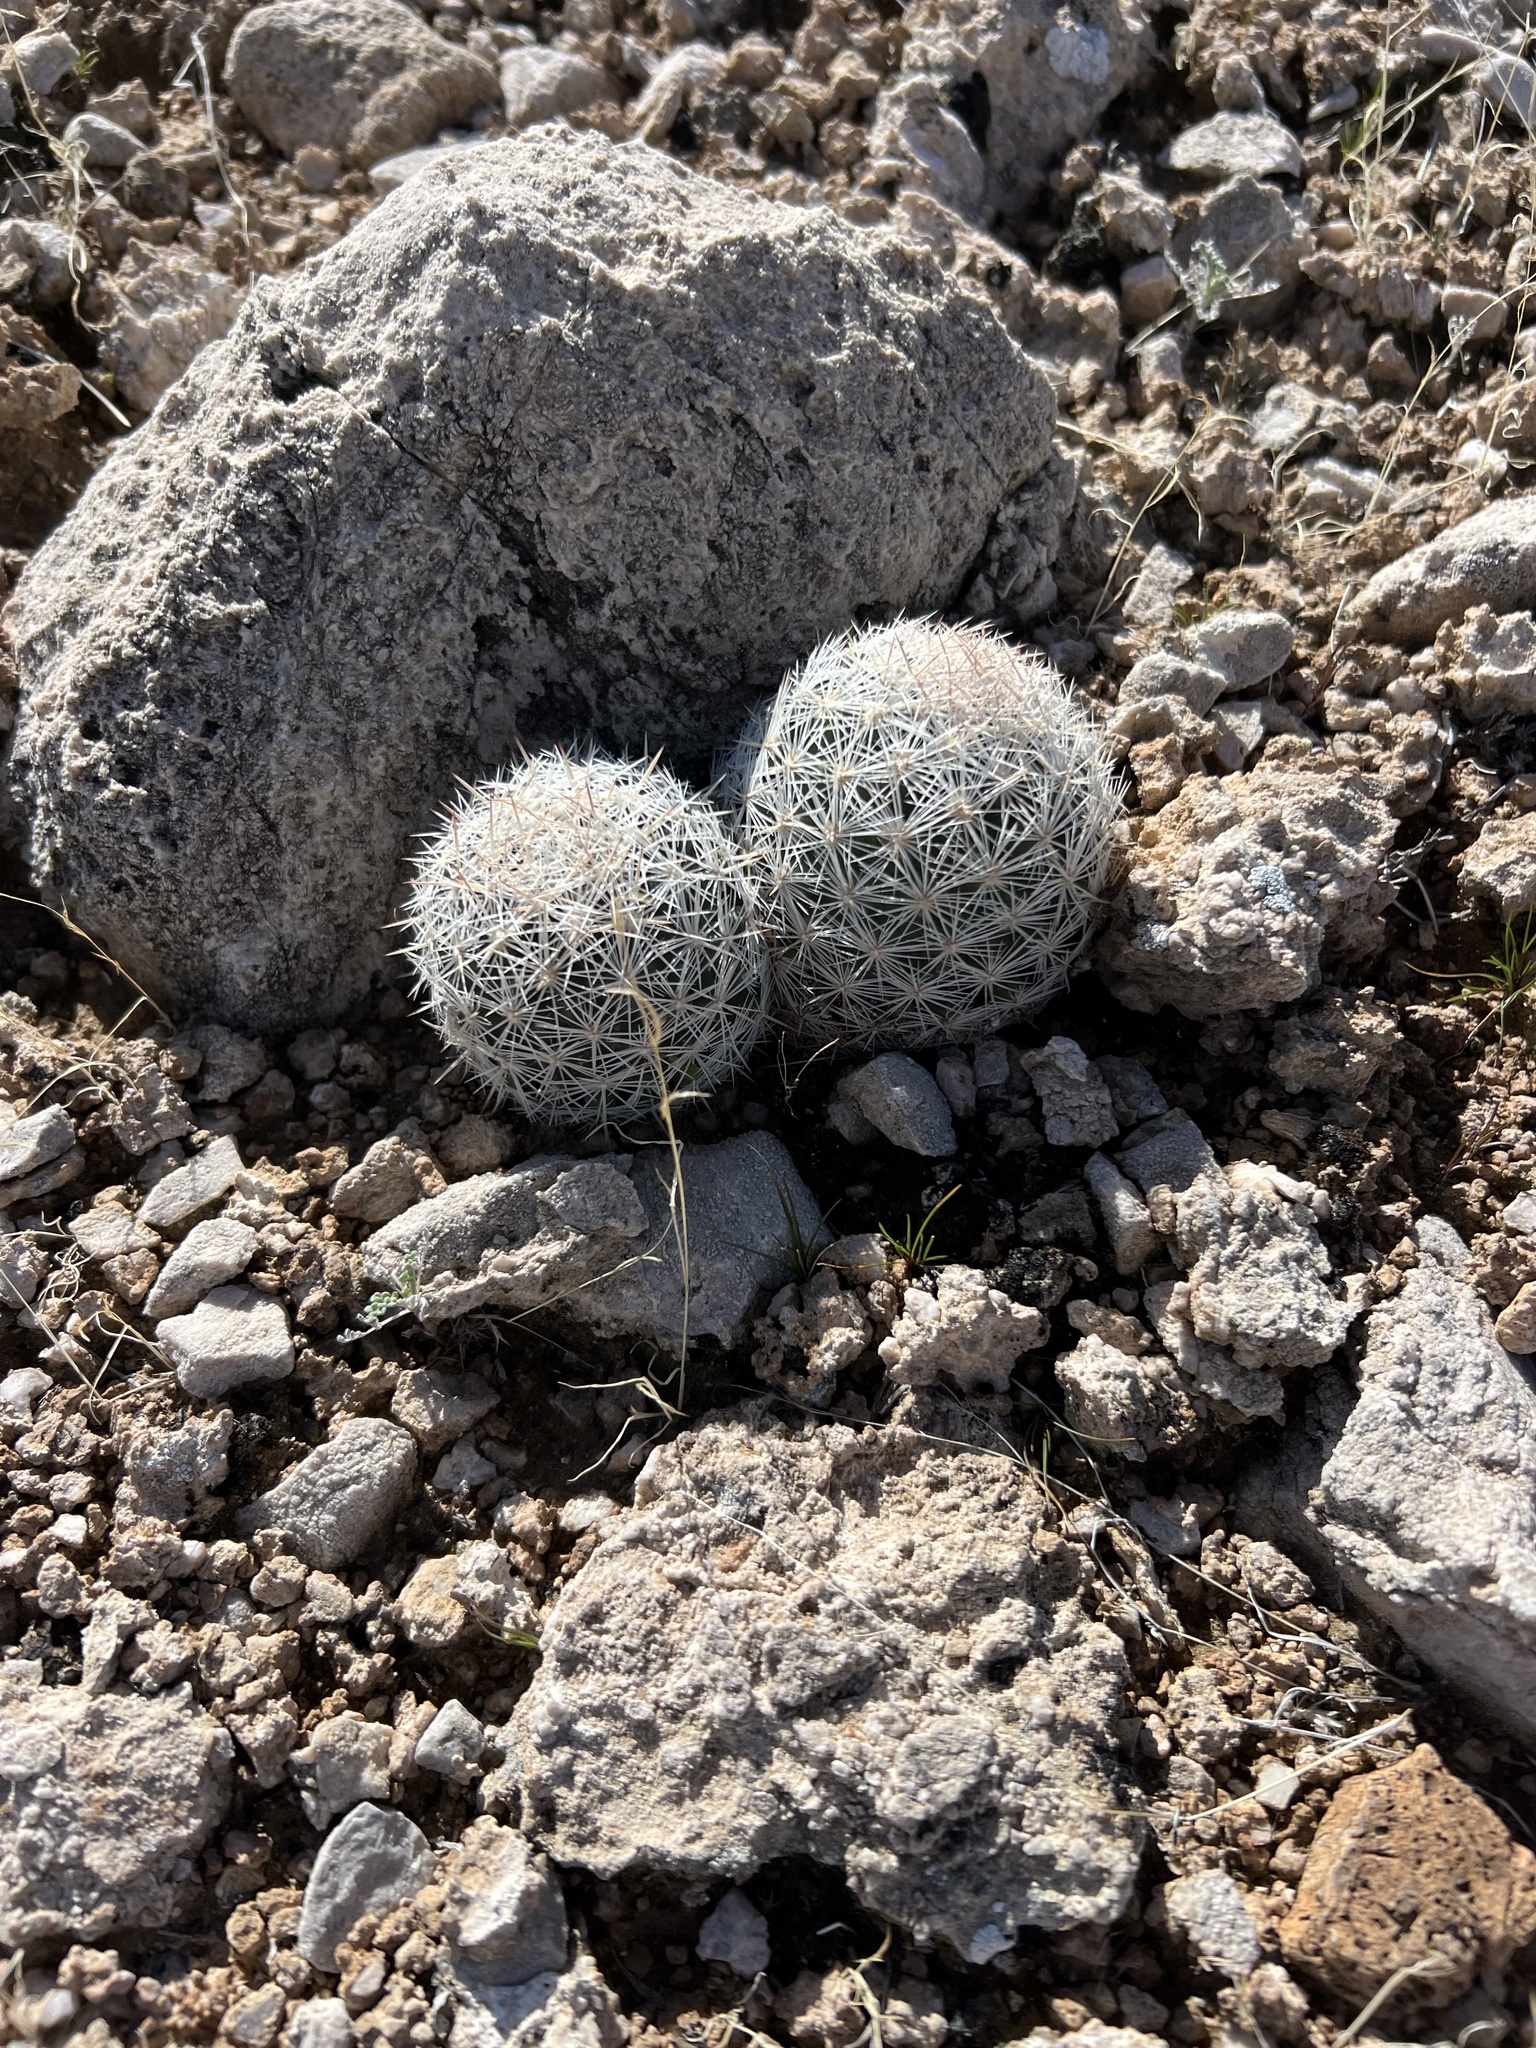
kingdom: Plantae
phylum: Tracheophyta
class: Magnoliopsida
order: Caryophyllales
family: Cactaceae
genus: Pelecyphora
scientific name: Pelecyphora dasyacantha
